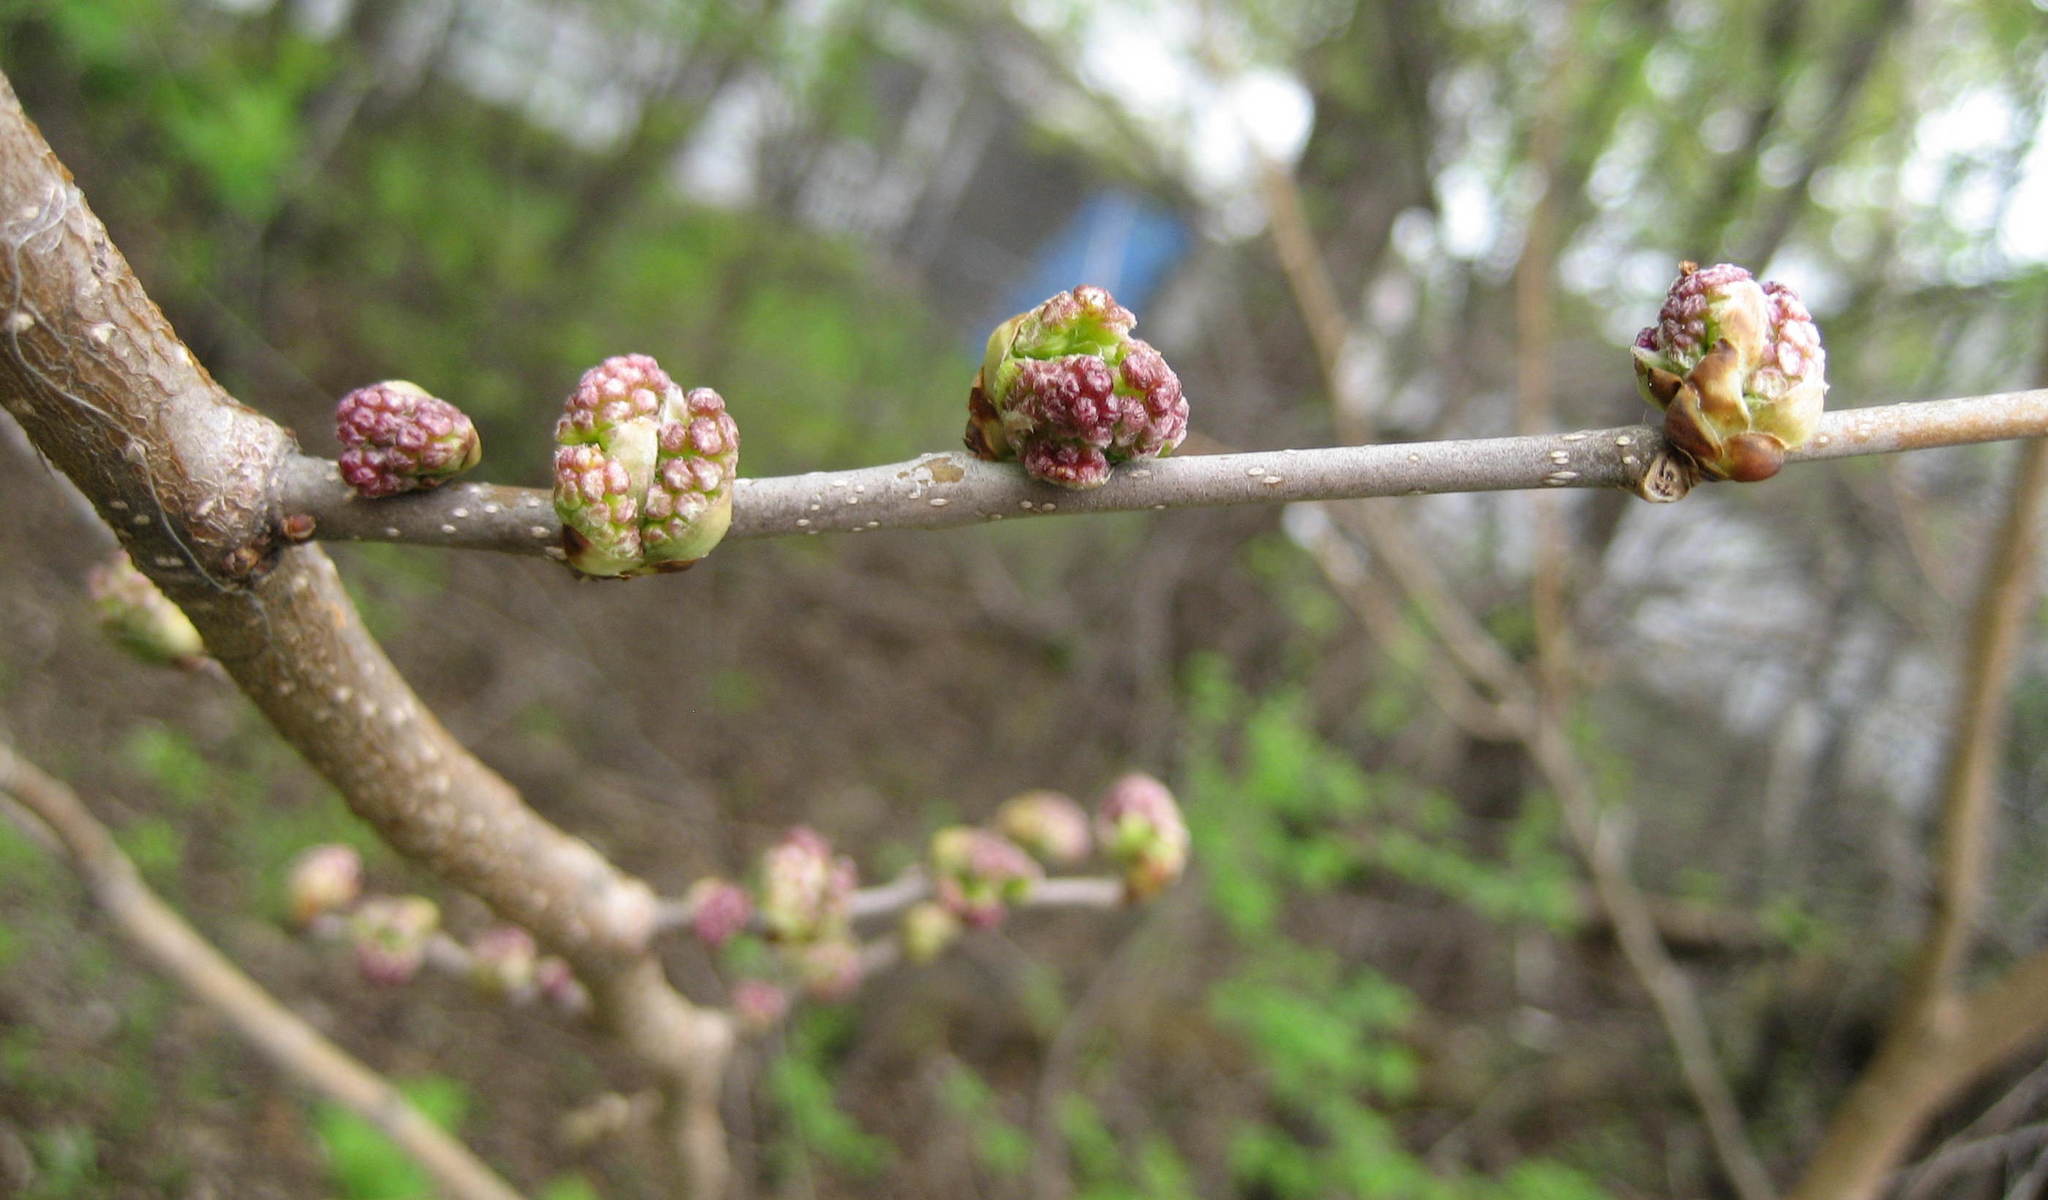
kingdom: Plantae
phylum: Tracheophyta
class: Magnoliopsida
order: Rosales
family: Moraceae
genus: Morus
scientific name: Morus alba
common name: White mulberry
